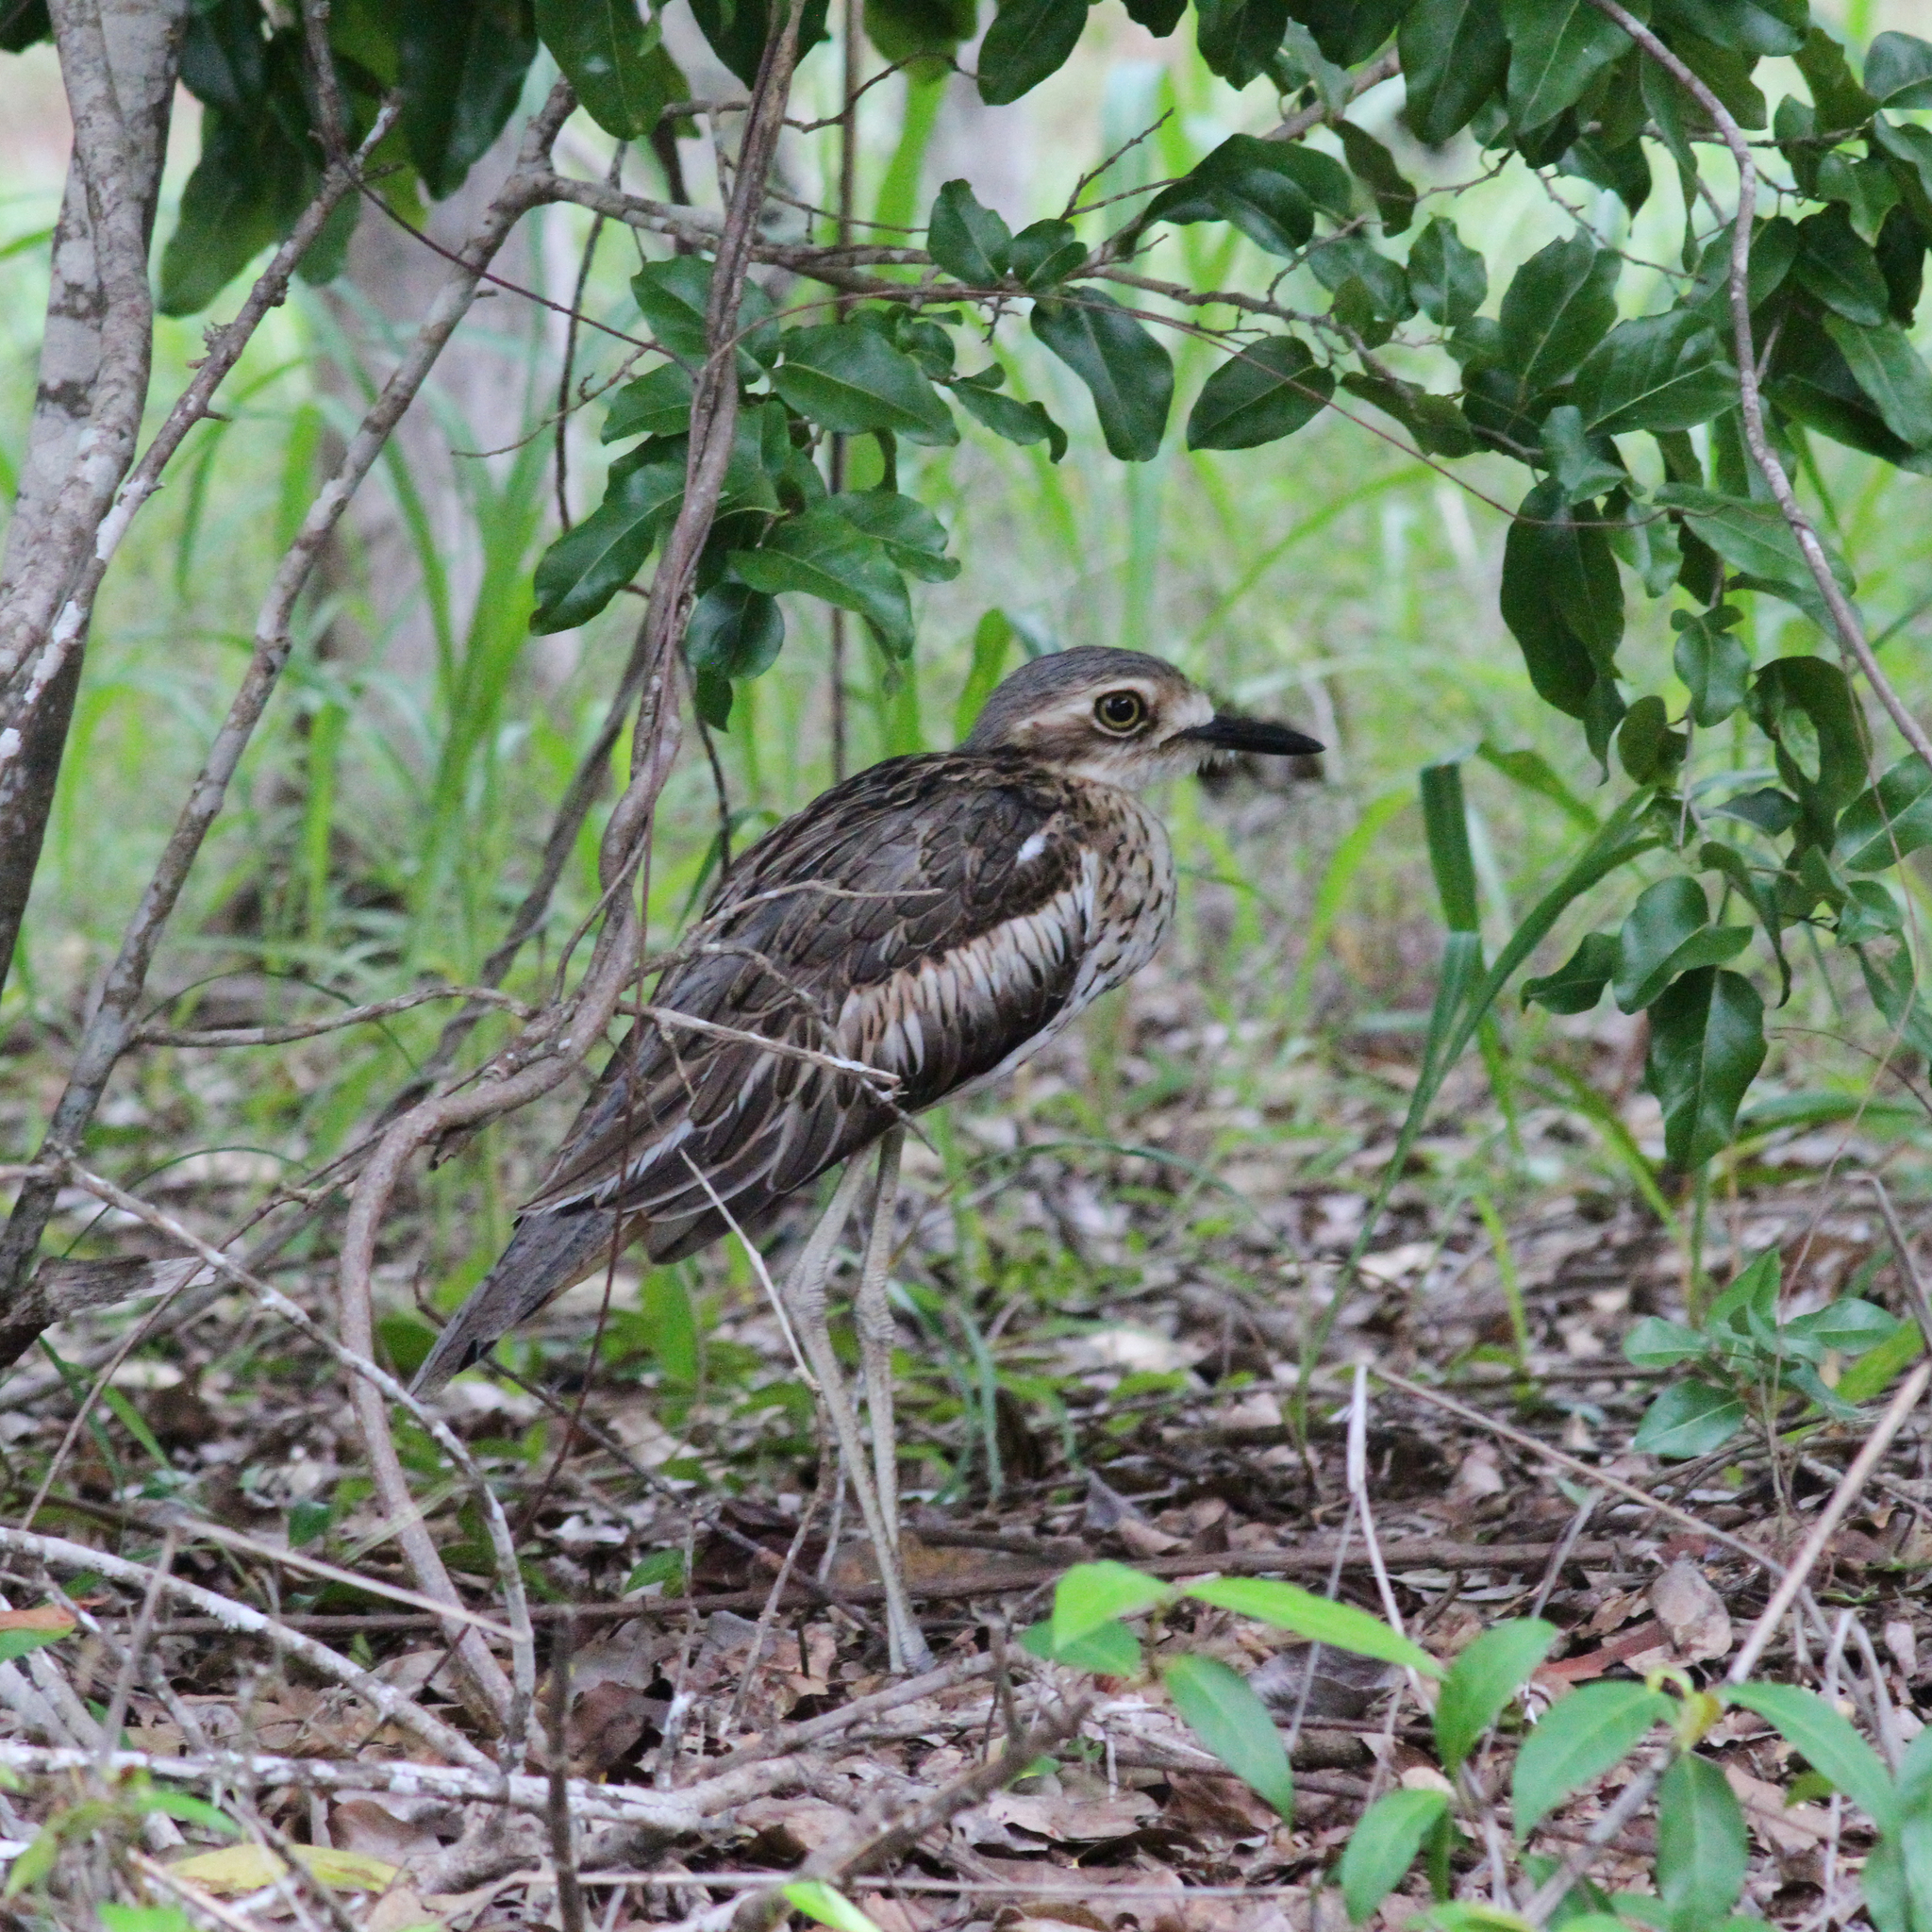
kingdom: Animalia
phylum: Chordata
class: Aves
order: Charadriiformes
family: Burhinidae
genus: Burhinus
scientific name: Burhinus grallarius
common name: Bush stone-curlew
